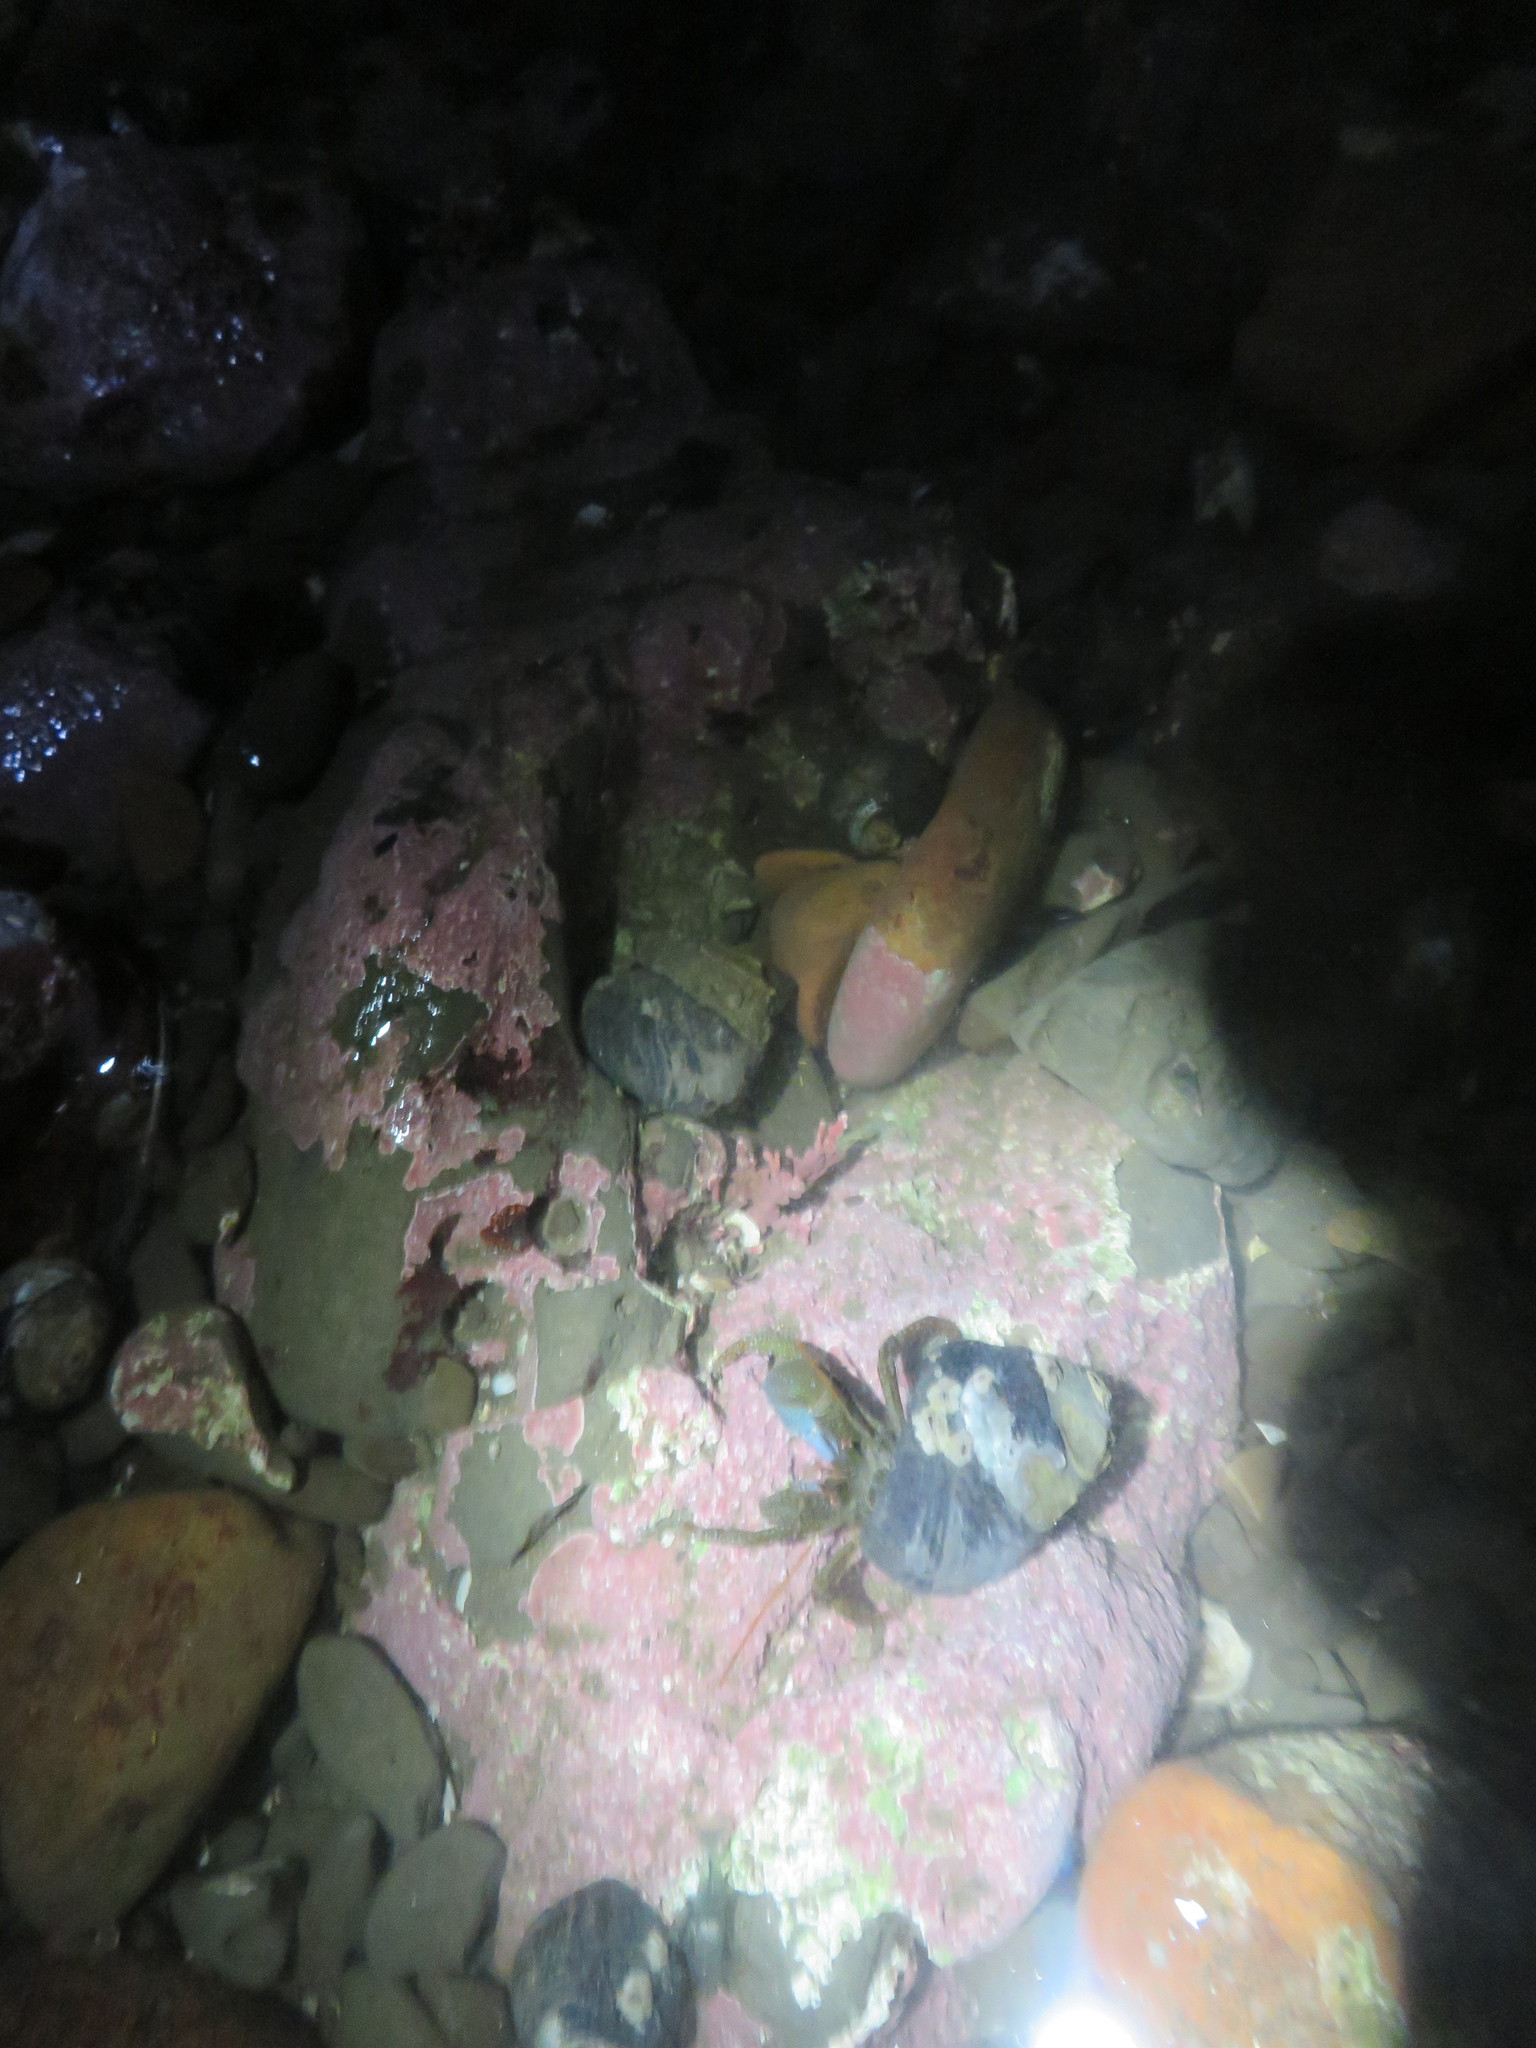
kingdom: Animalia
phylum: Arthropoda
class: Malacostraca
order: Decapoda
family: Paguridae
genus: Pagurus
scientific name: Pagurus granosimanus
